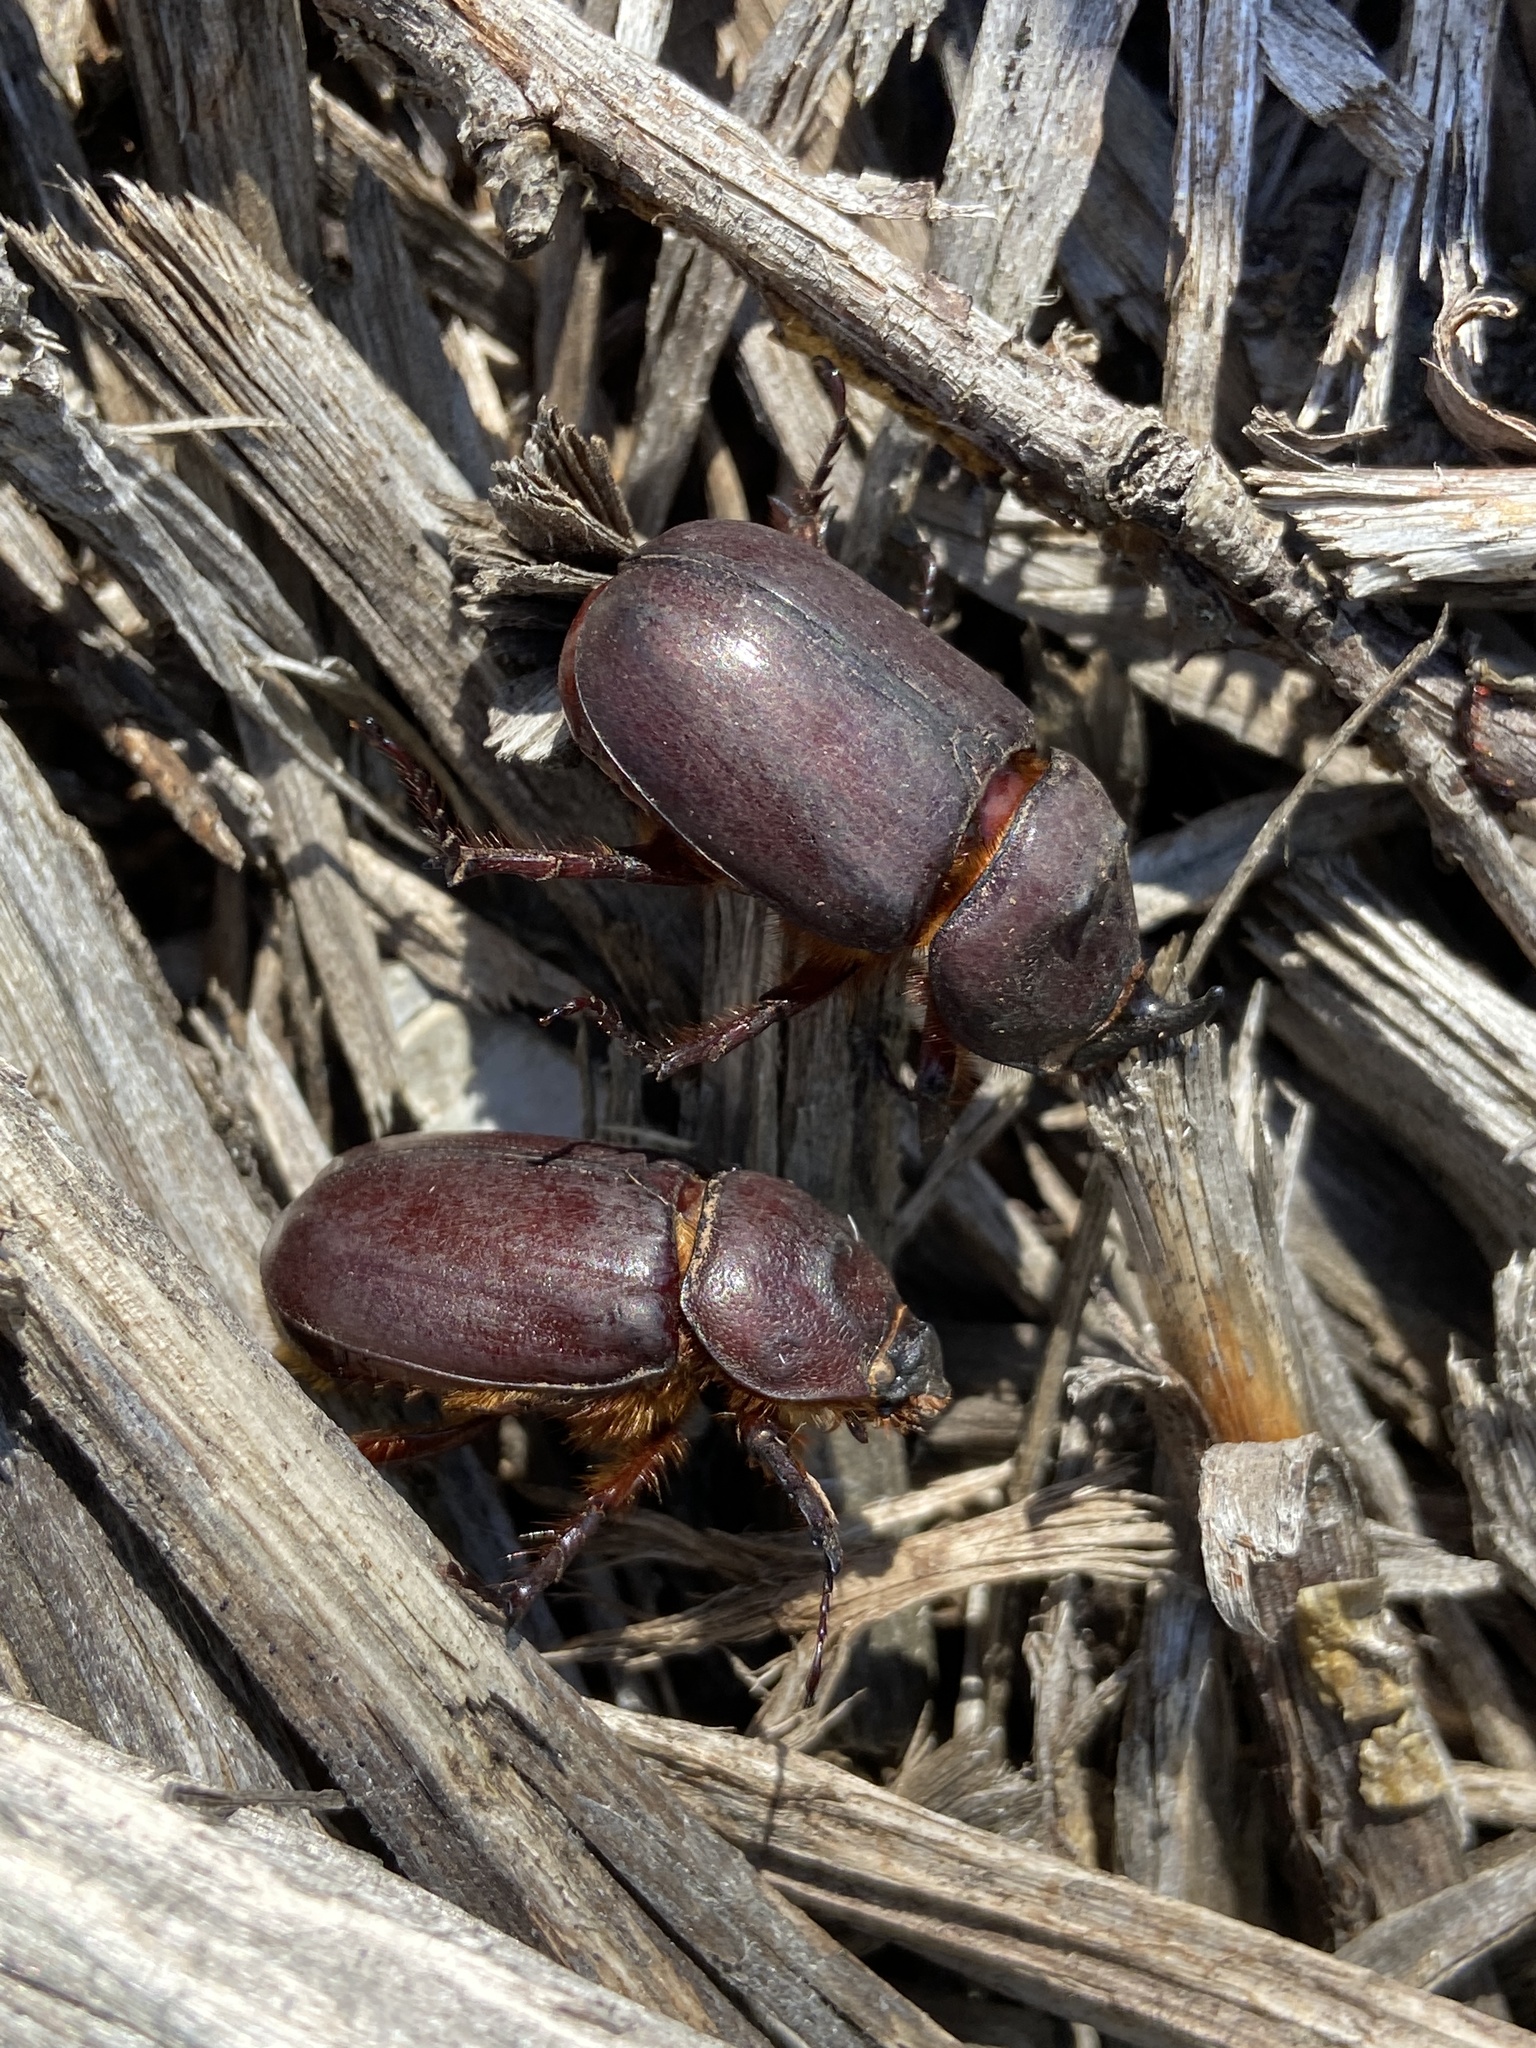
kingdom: Animalia
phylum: Arthropoda
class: Insecta
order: Coleoptera
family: Scarabaeidae
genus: Oryctes
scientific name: Oryctes nasicornis
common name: European rhinoceros beetle
